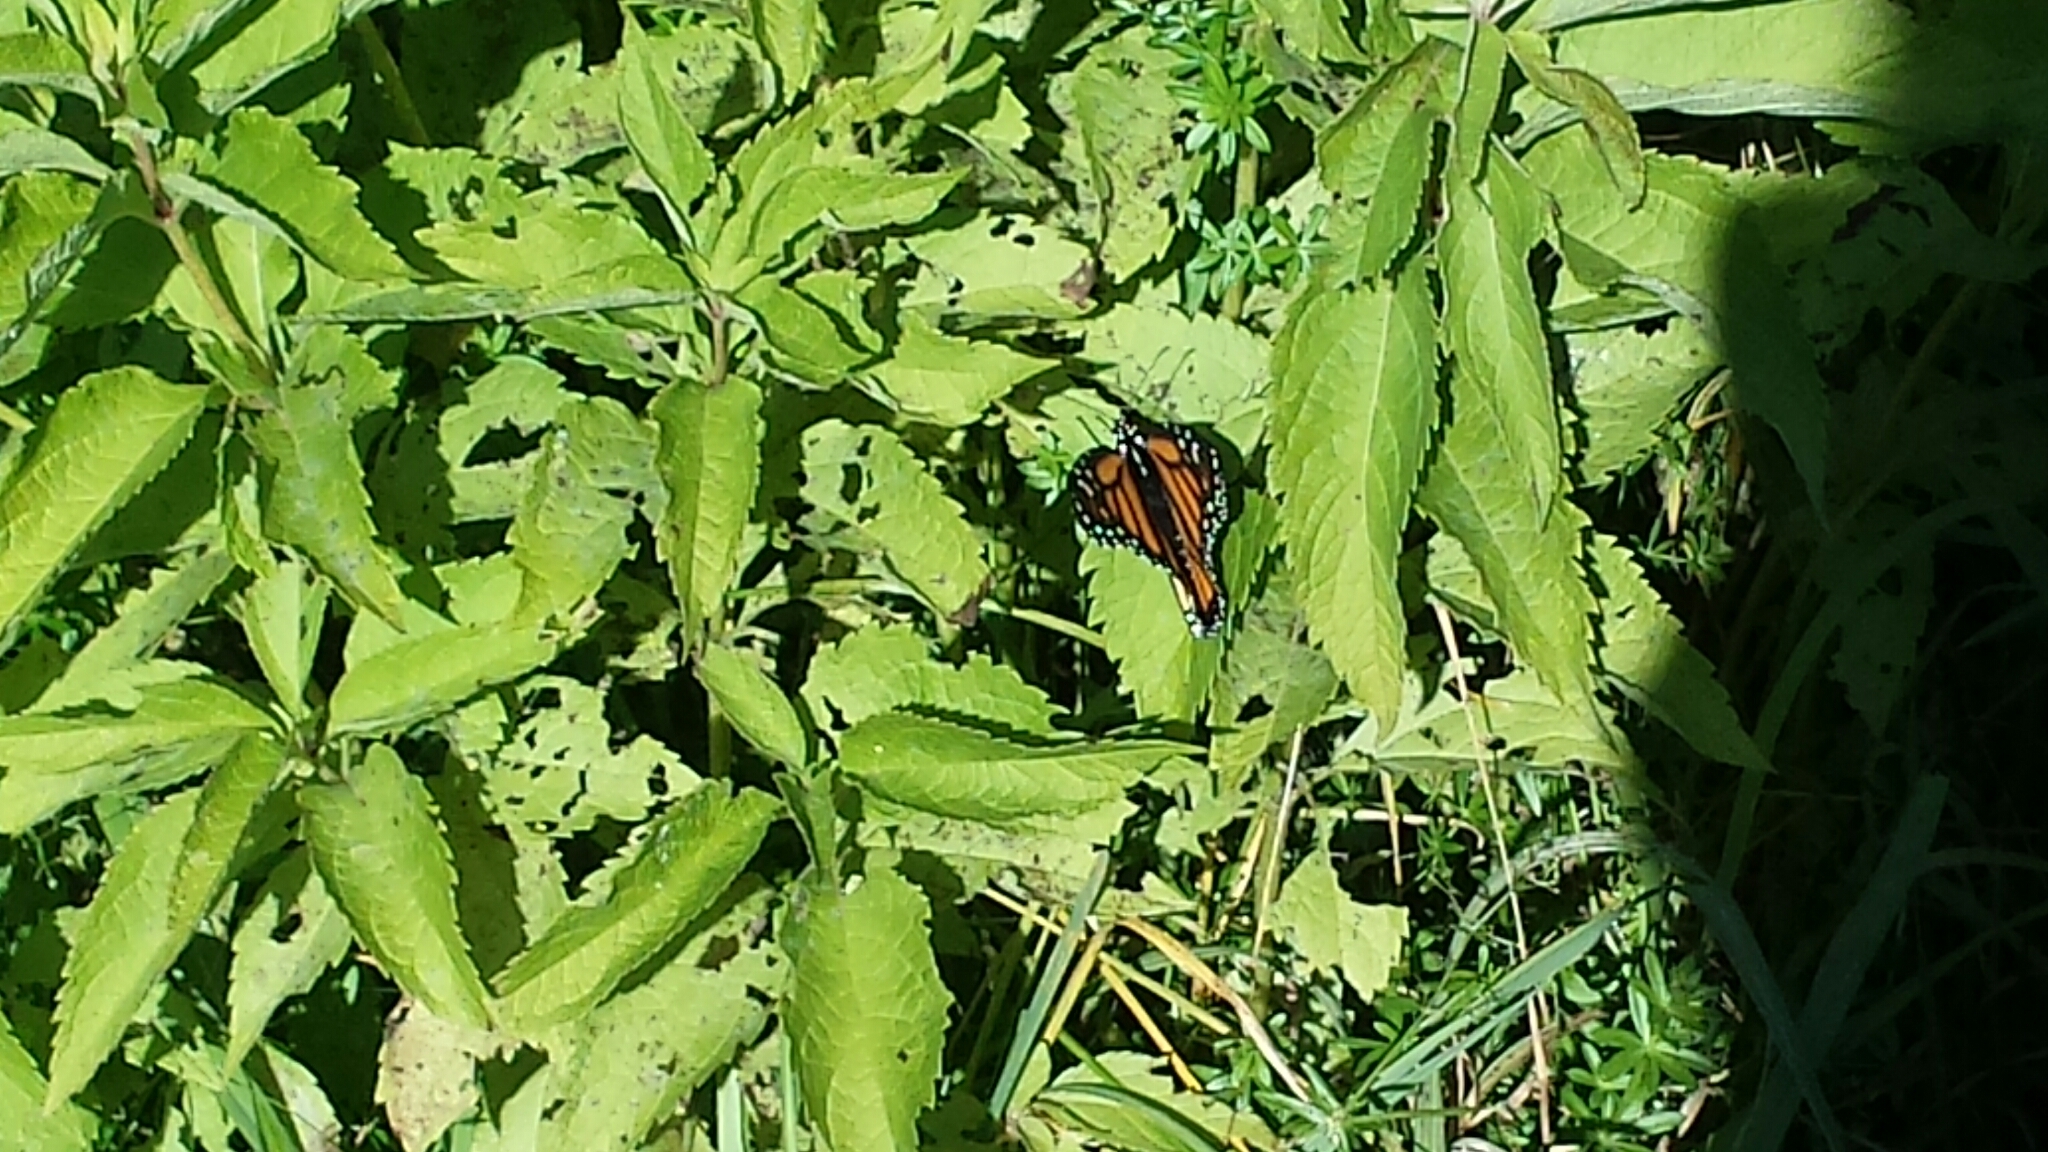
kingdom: Animalia
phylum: Arthropoda
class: Insecta
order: Lepidoptera
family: Nymphalidae
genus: Danaus
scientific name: Danaus plexippus
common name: Monarch
